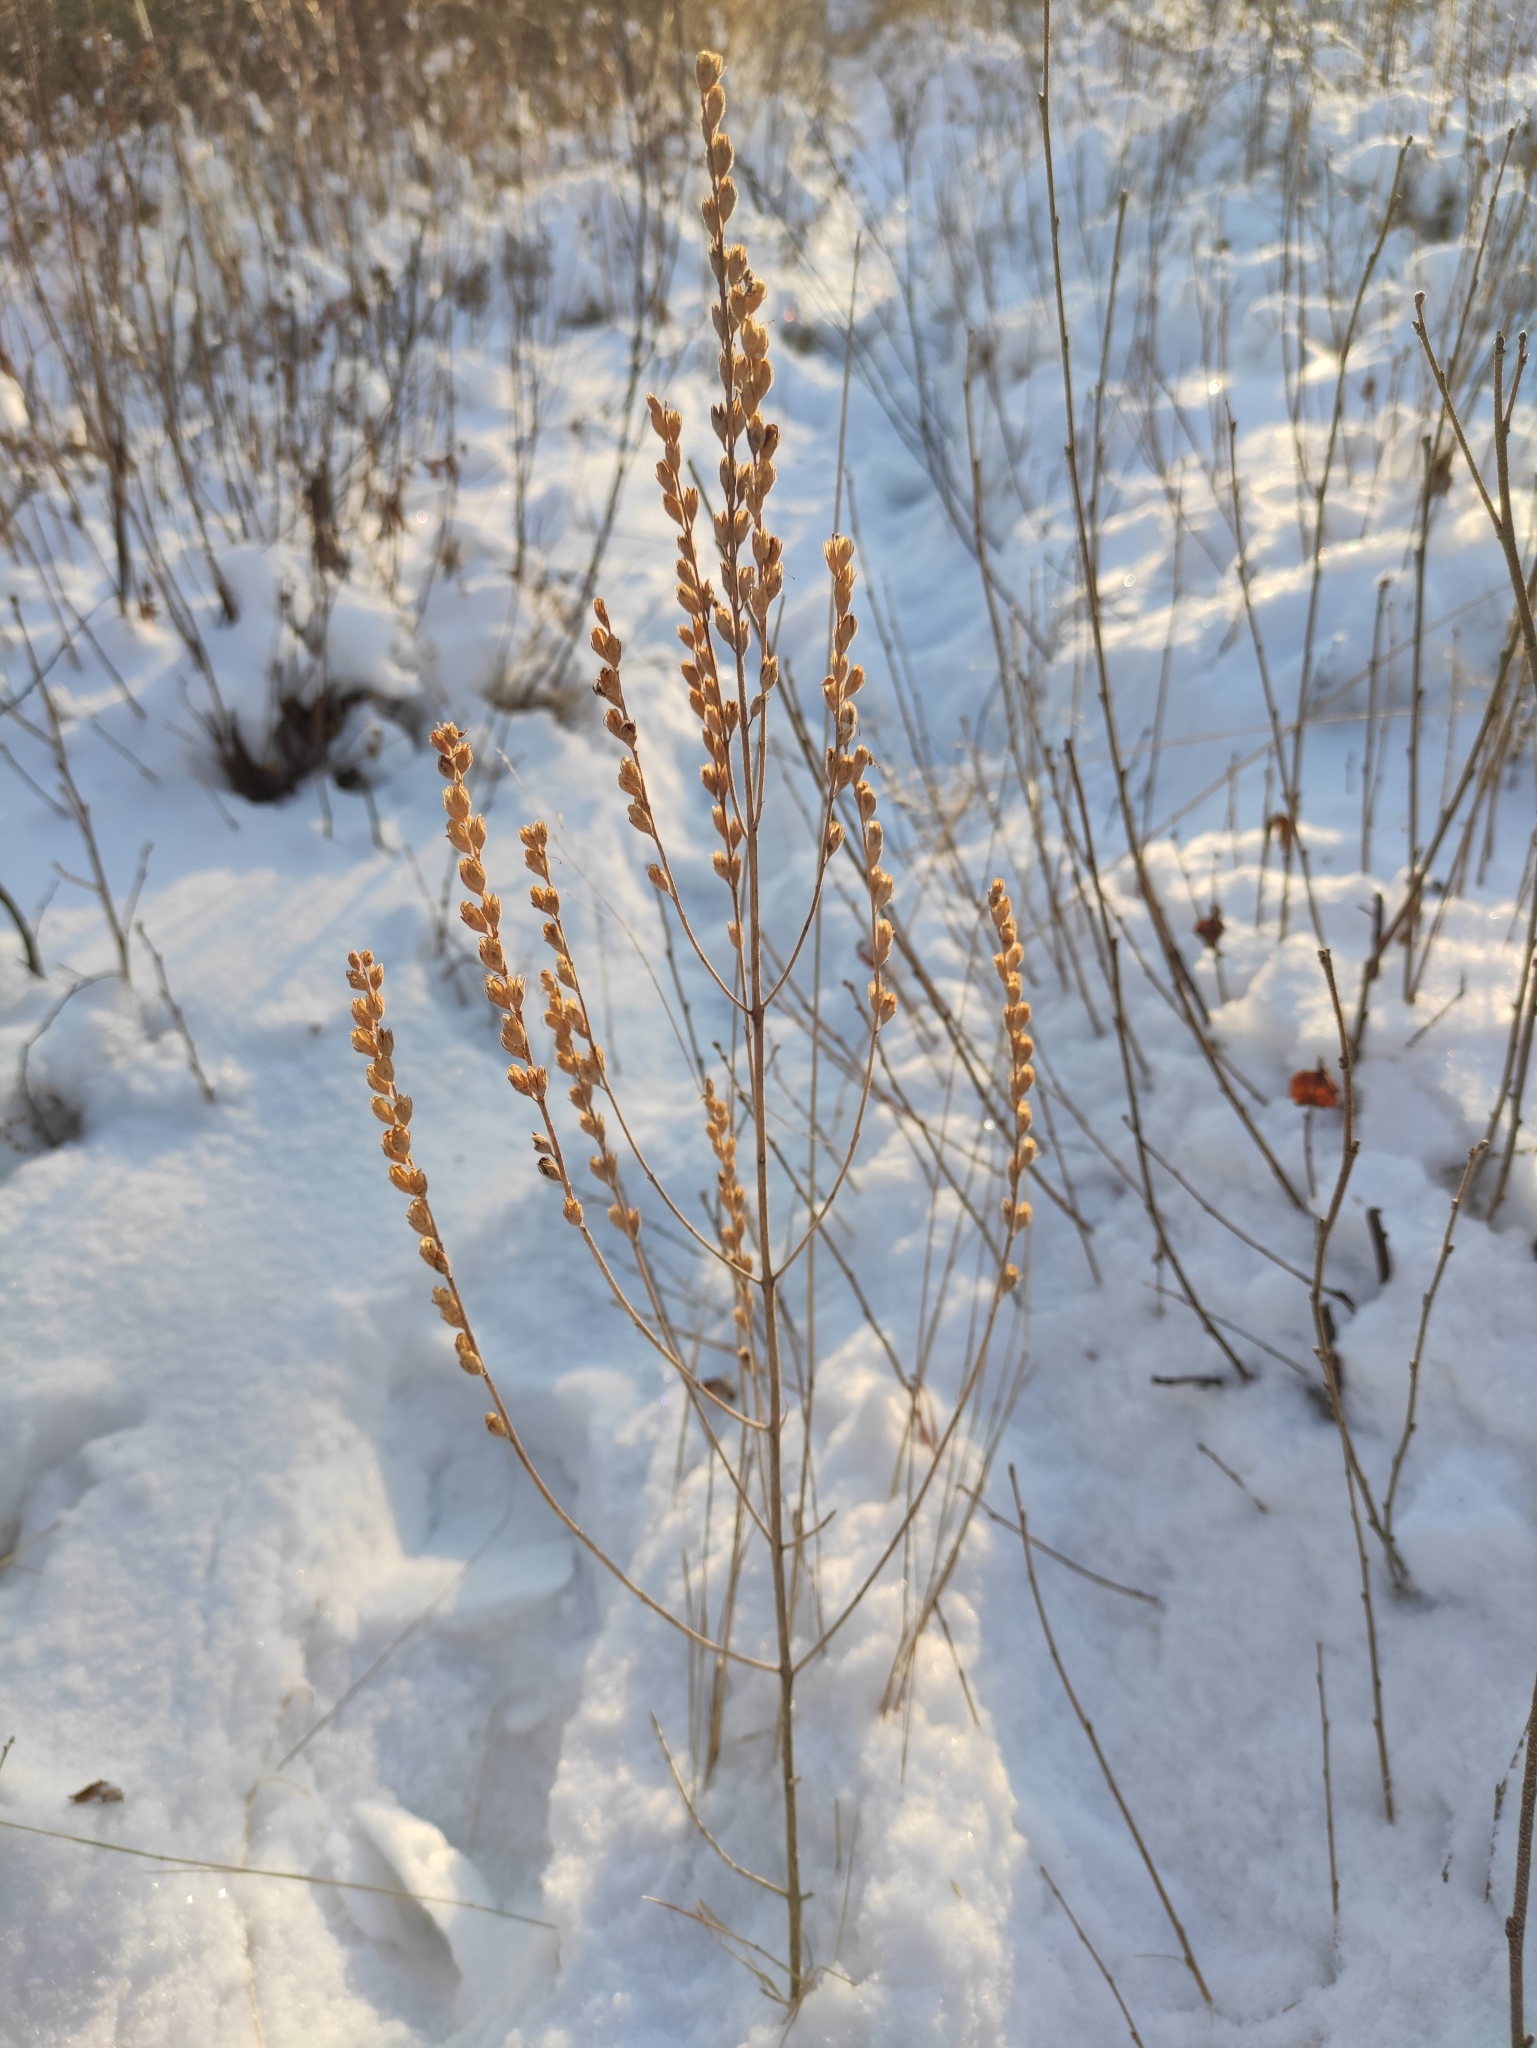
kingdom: Plantae
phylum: Tracheophyta
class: Magnoliopsida
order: Lamiales
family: Orobanchaceae
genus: Odontites
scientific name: Odontites vulgaris
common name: Broomrape
